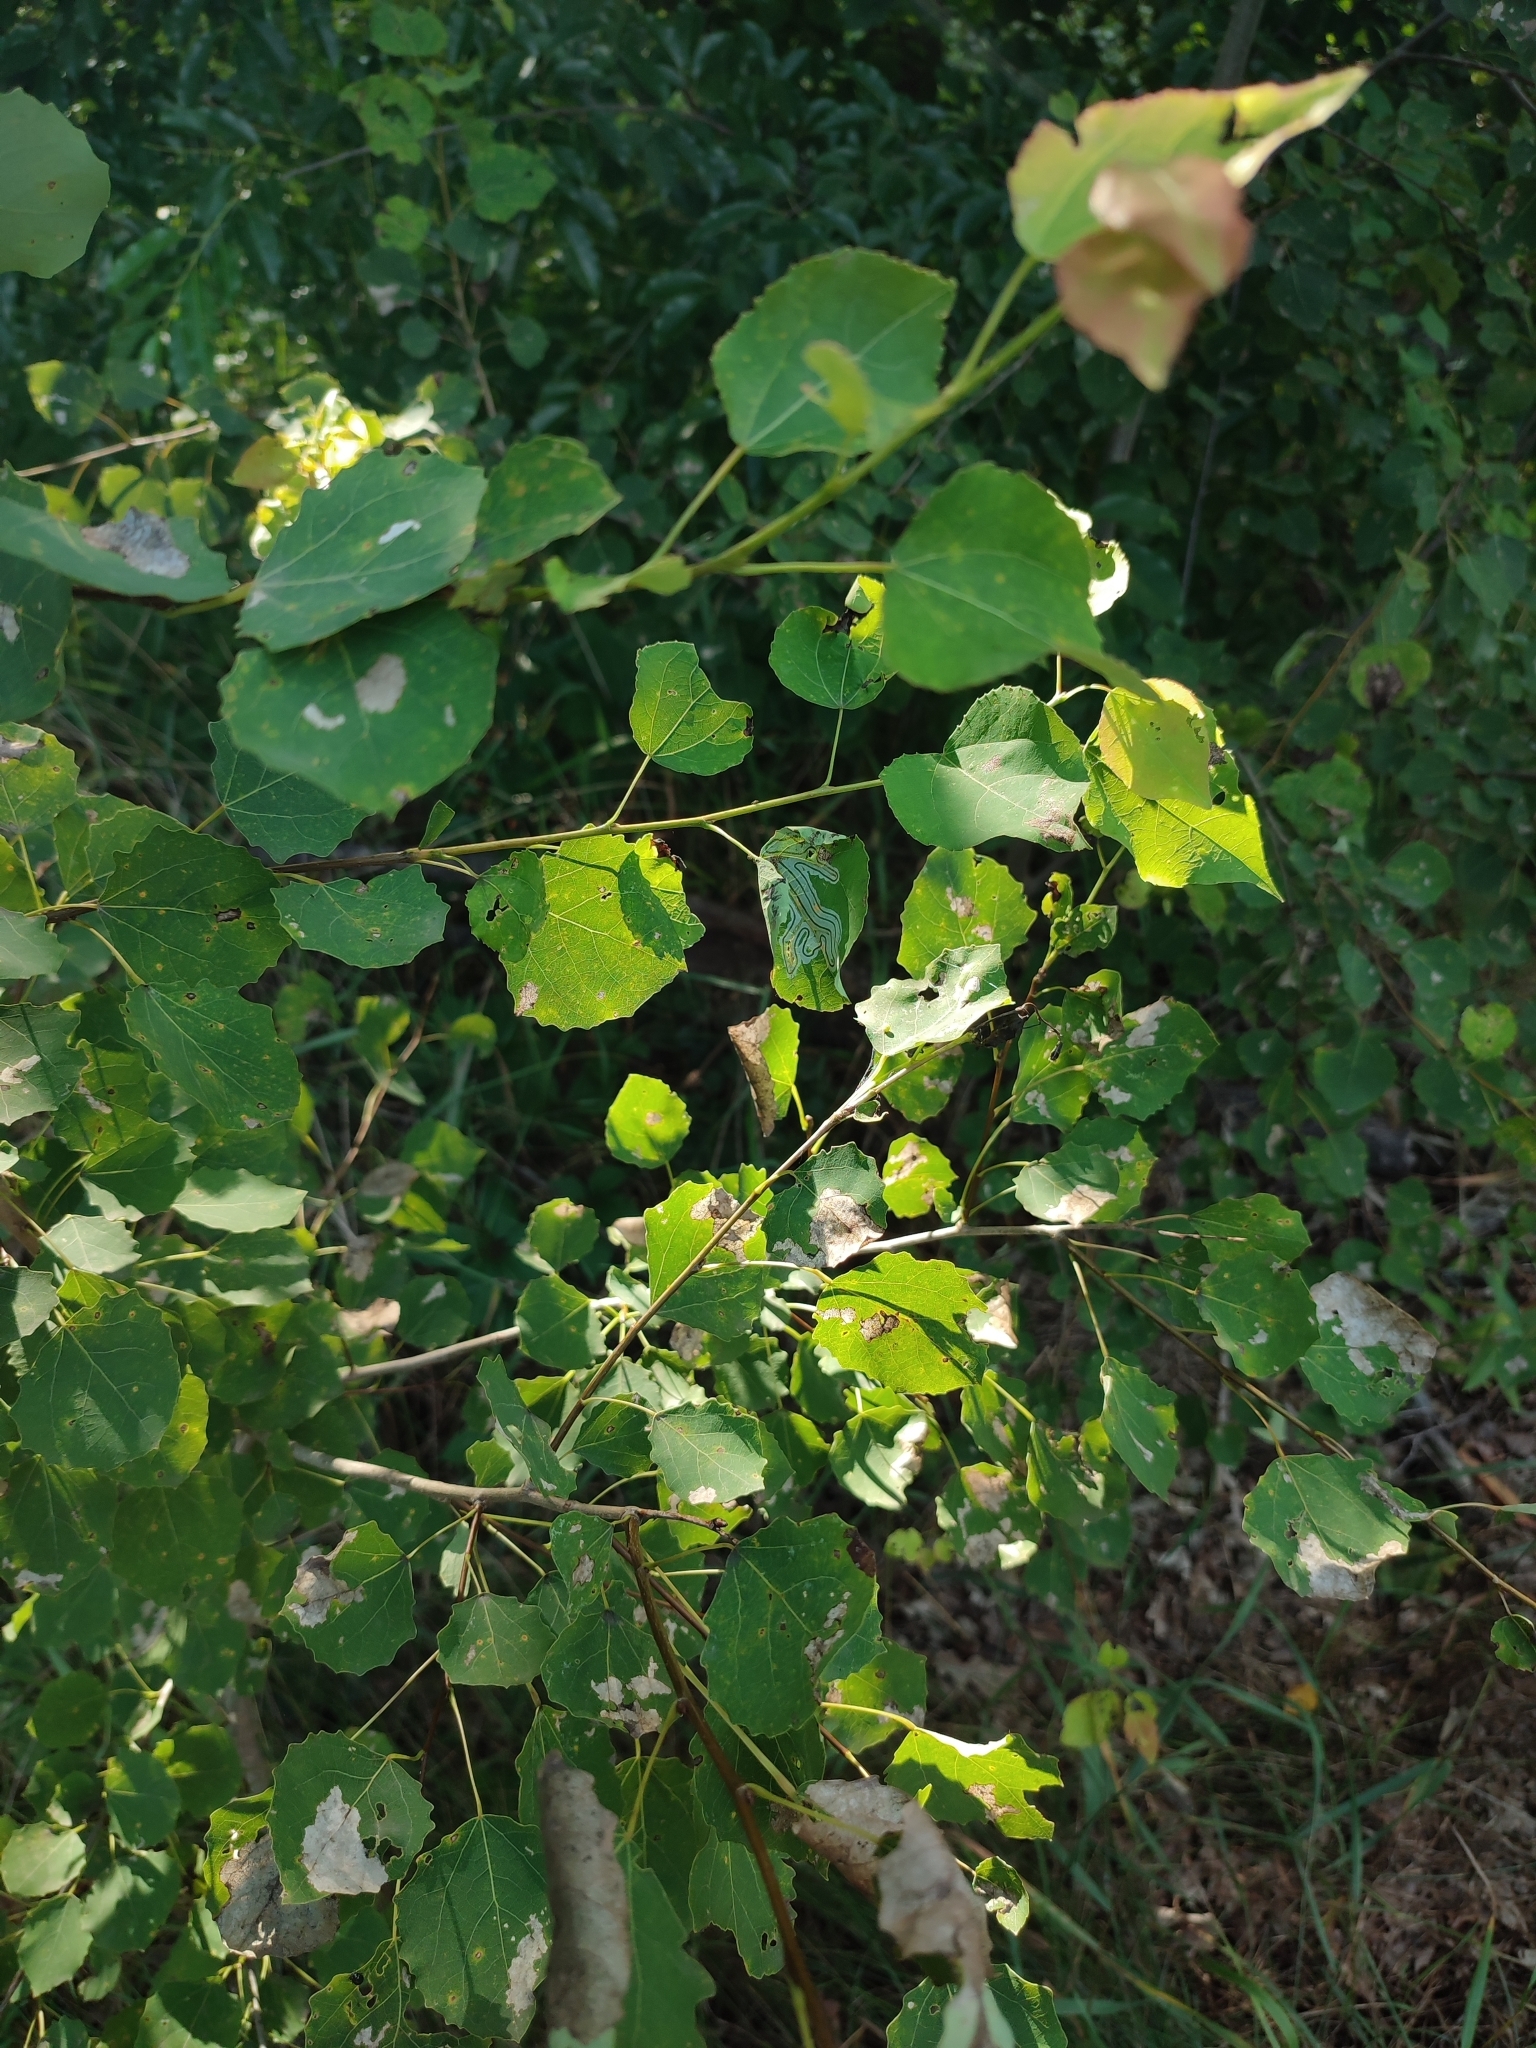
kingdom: Animalia
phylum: Arthropoda
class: Insecta
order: Lepidoptera
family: Gracillariidae
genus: Phyllocnistis
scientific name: Phyllocnistis labyrinthella
